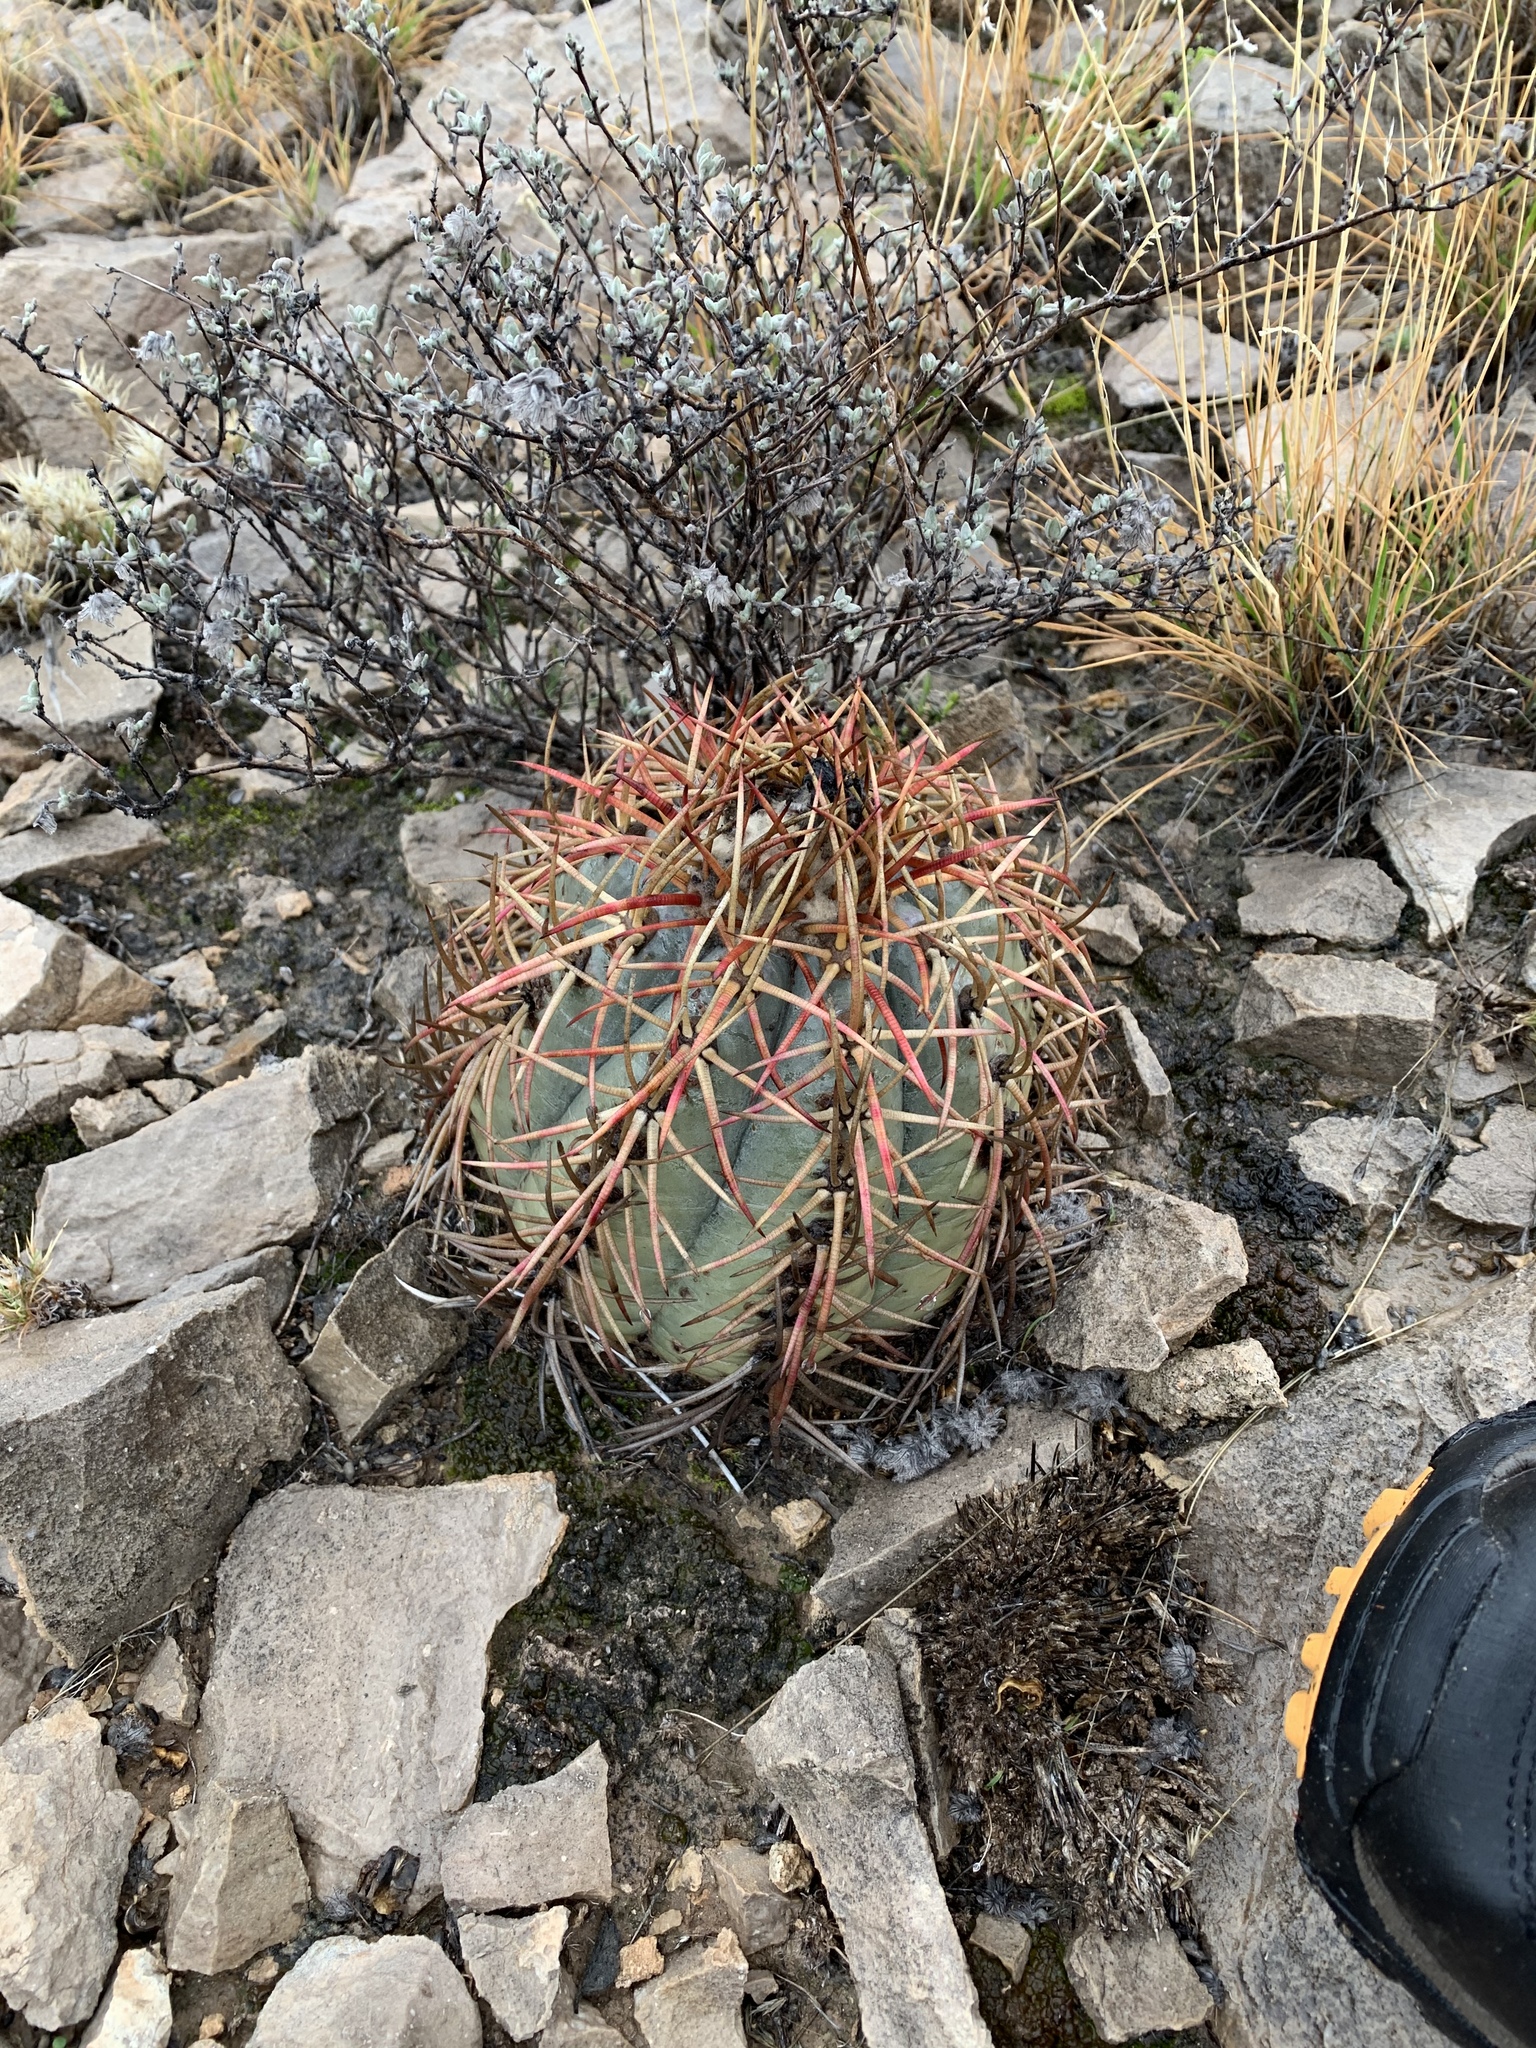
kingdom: Plantae
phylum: Tracheophyta
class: Magnoliopsida
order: Caryophyllales
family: Cactaceae
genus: Echinocactus
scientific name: Echinocactus horizonthalonius
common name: Devilshead
